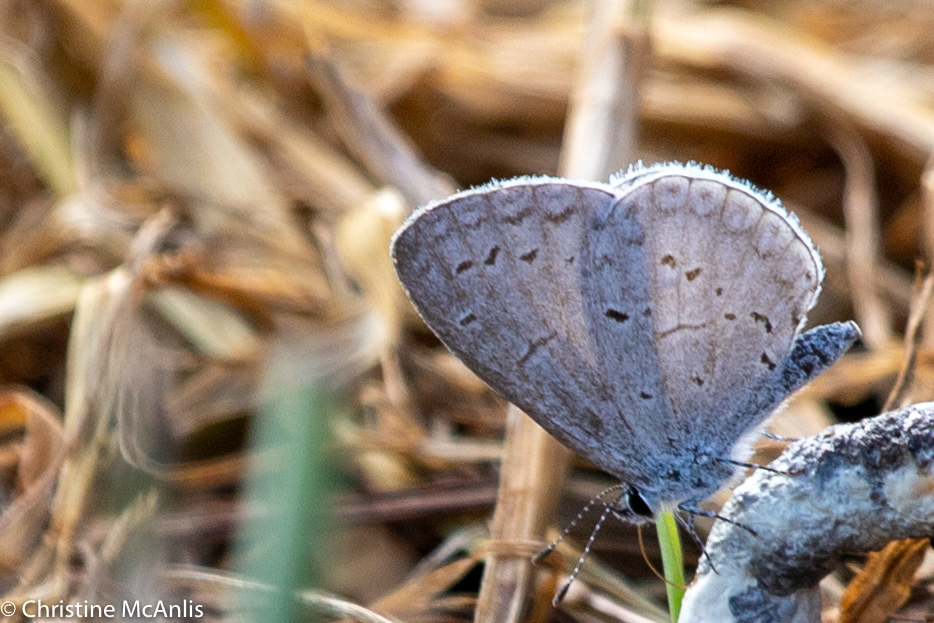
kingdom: Animalia
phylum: Arthropoda
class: Insecta
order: Lepidoptera
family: Lycaenidae
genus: Cyaniris
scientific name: Cyaniris neglecta
